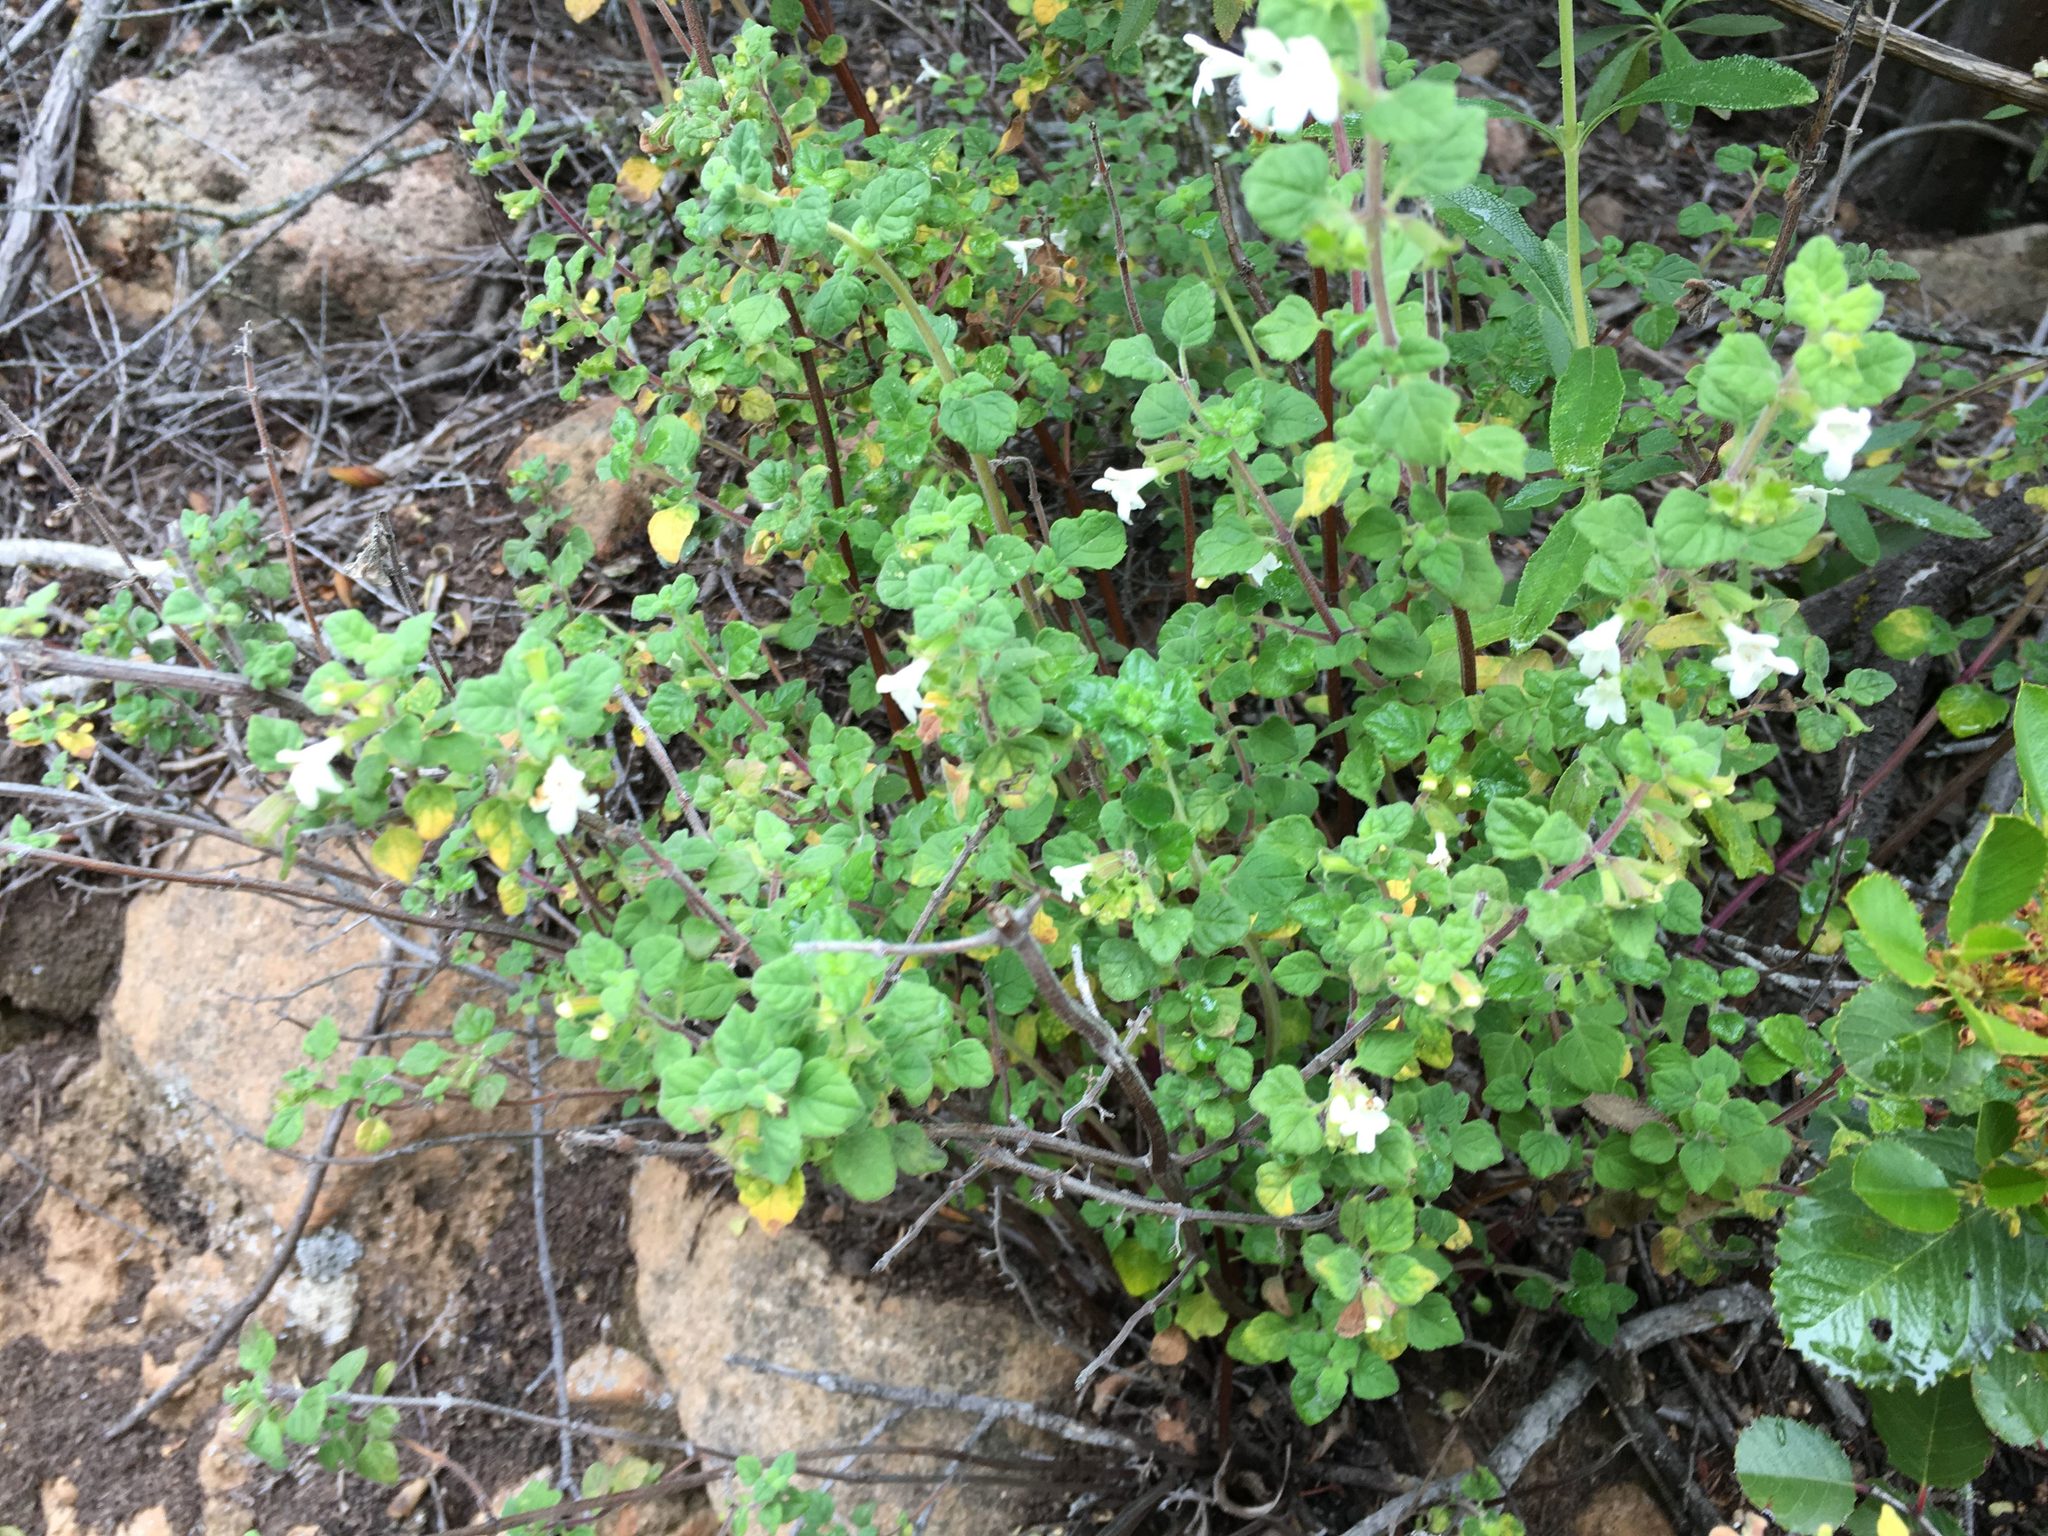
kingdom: Plantae
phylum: Tracheophyta
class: Magnoliopsida
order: Lamiales
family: Lamiaceae
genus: Clinopodium
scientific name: Clinopodium chandleri
